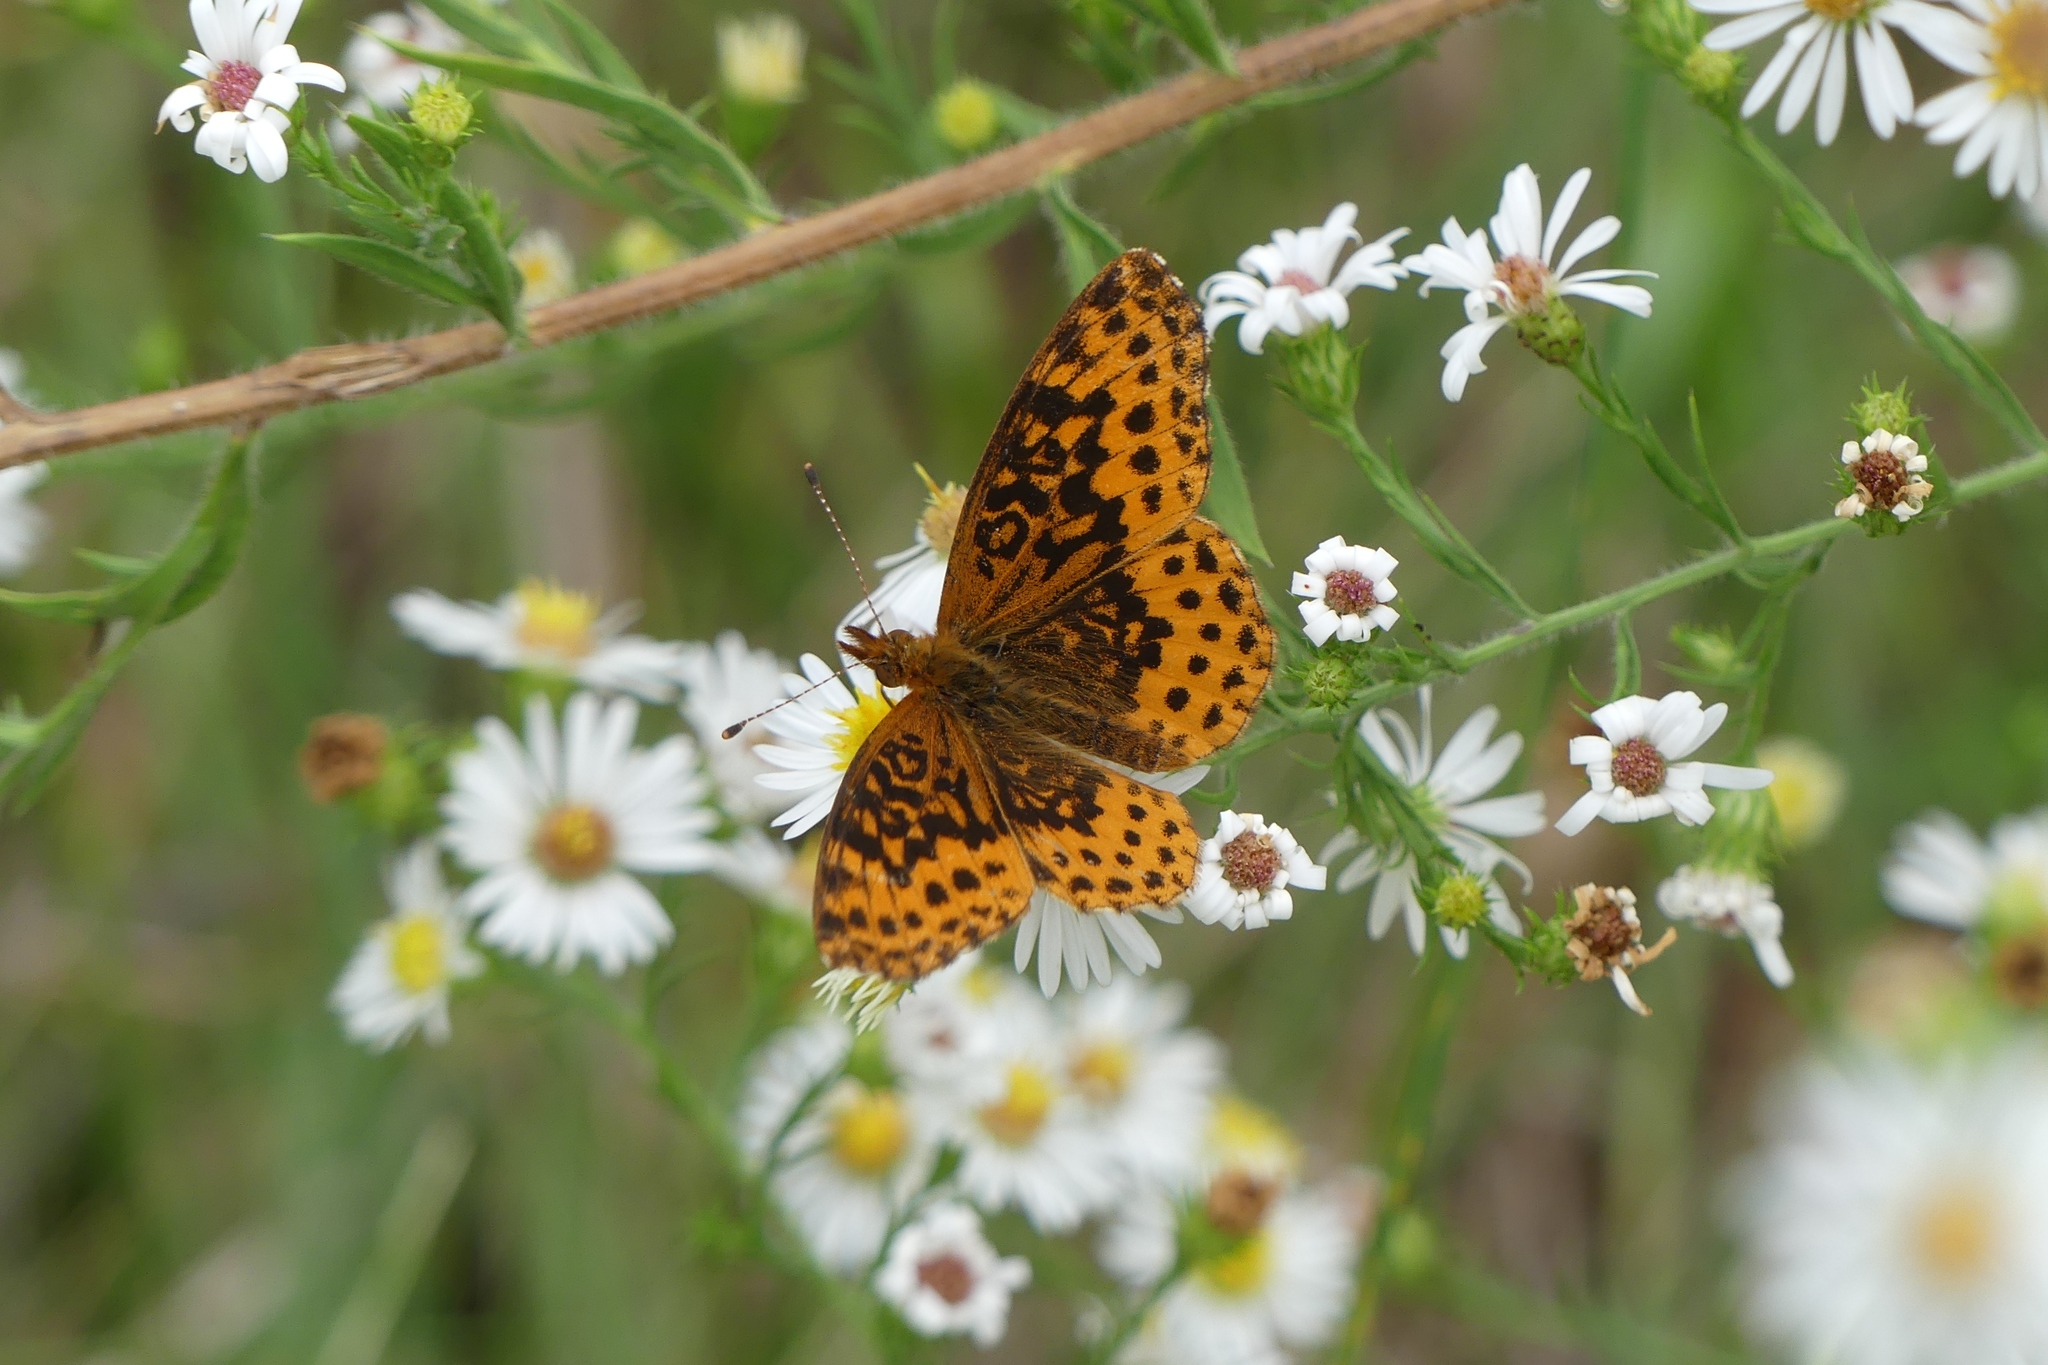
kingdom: Animalia
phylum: Arthropoda
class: Insecta
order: Lepidoptera
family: Nymphalidae
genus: Clossiana
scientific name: Clossiana toddi
